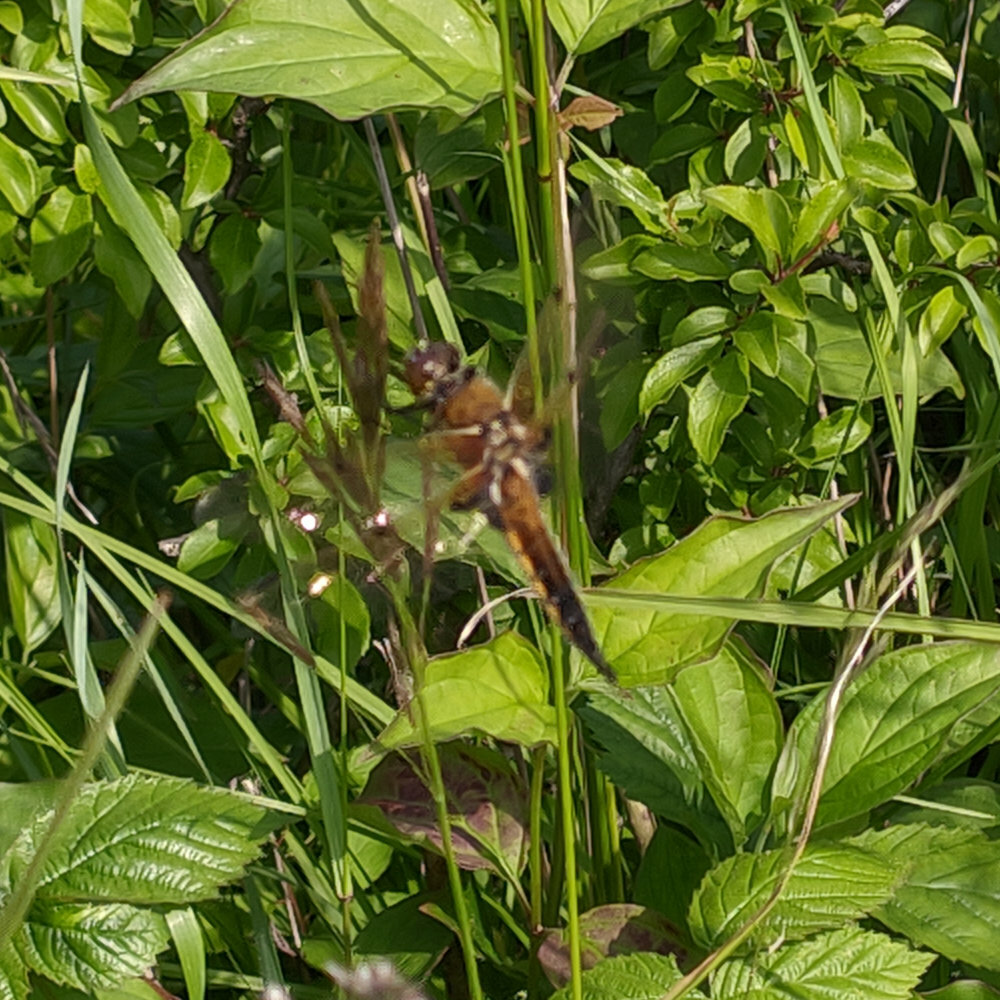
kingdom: Animalia
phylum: Arthropoda
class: Insecta
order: Odonata
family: Libellulidae
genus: Libellula
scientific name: Libellula quadrimaculata
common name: Four-spotted chaser
